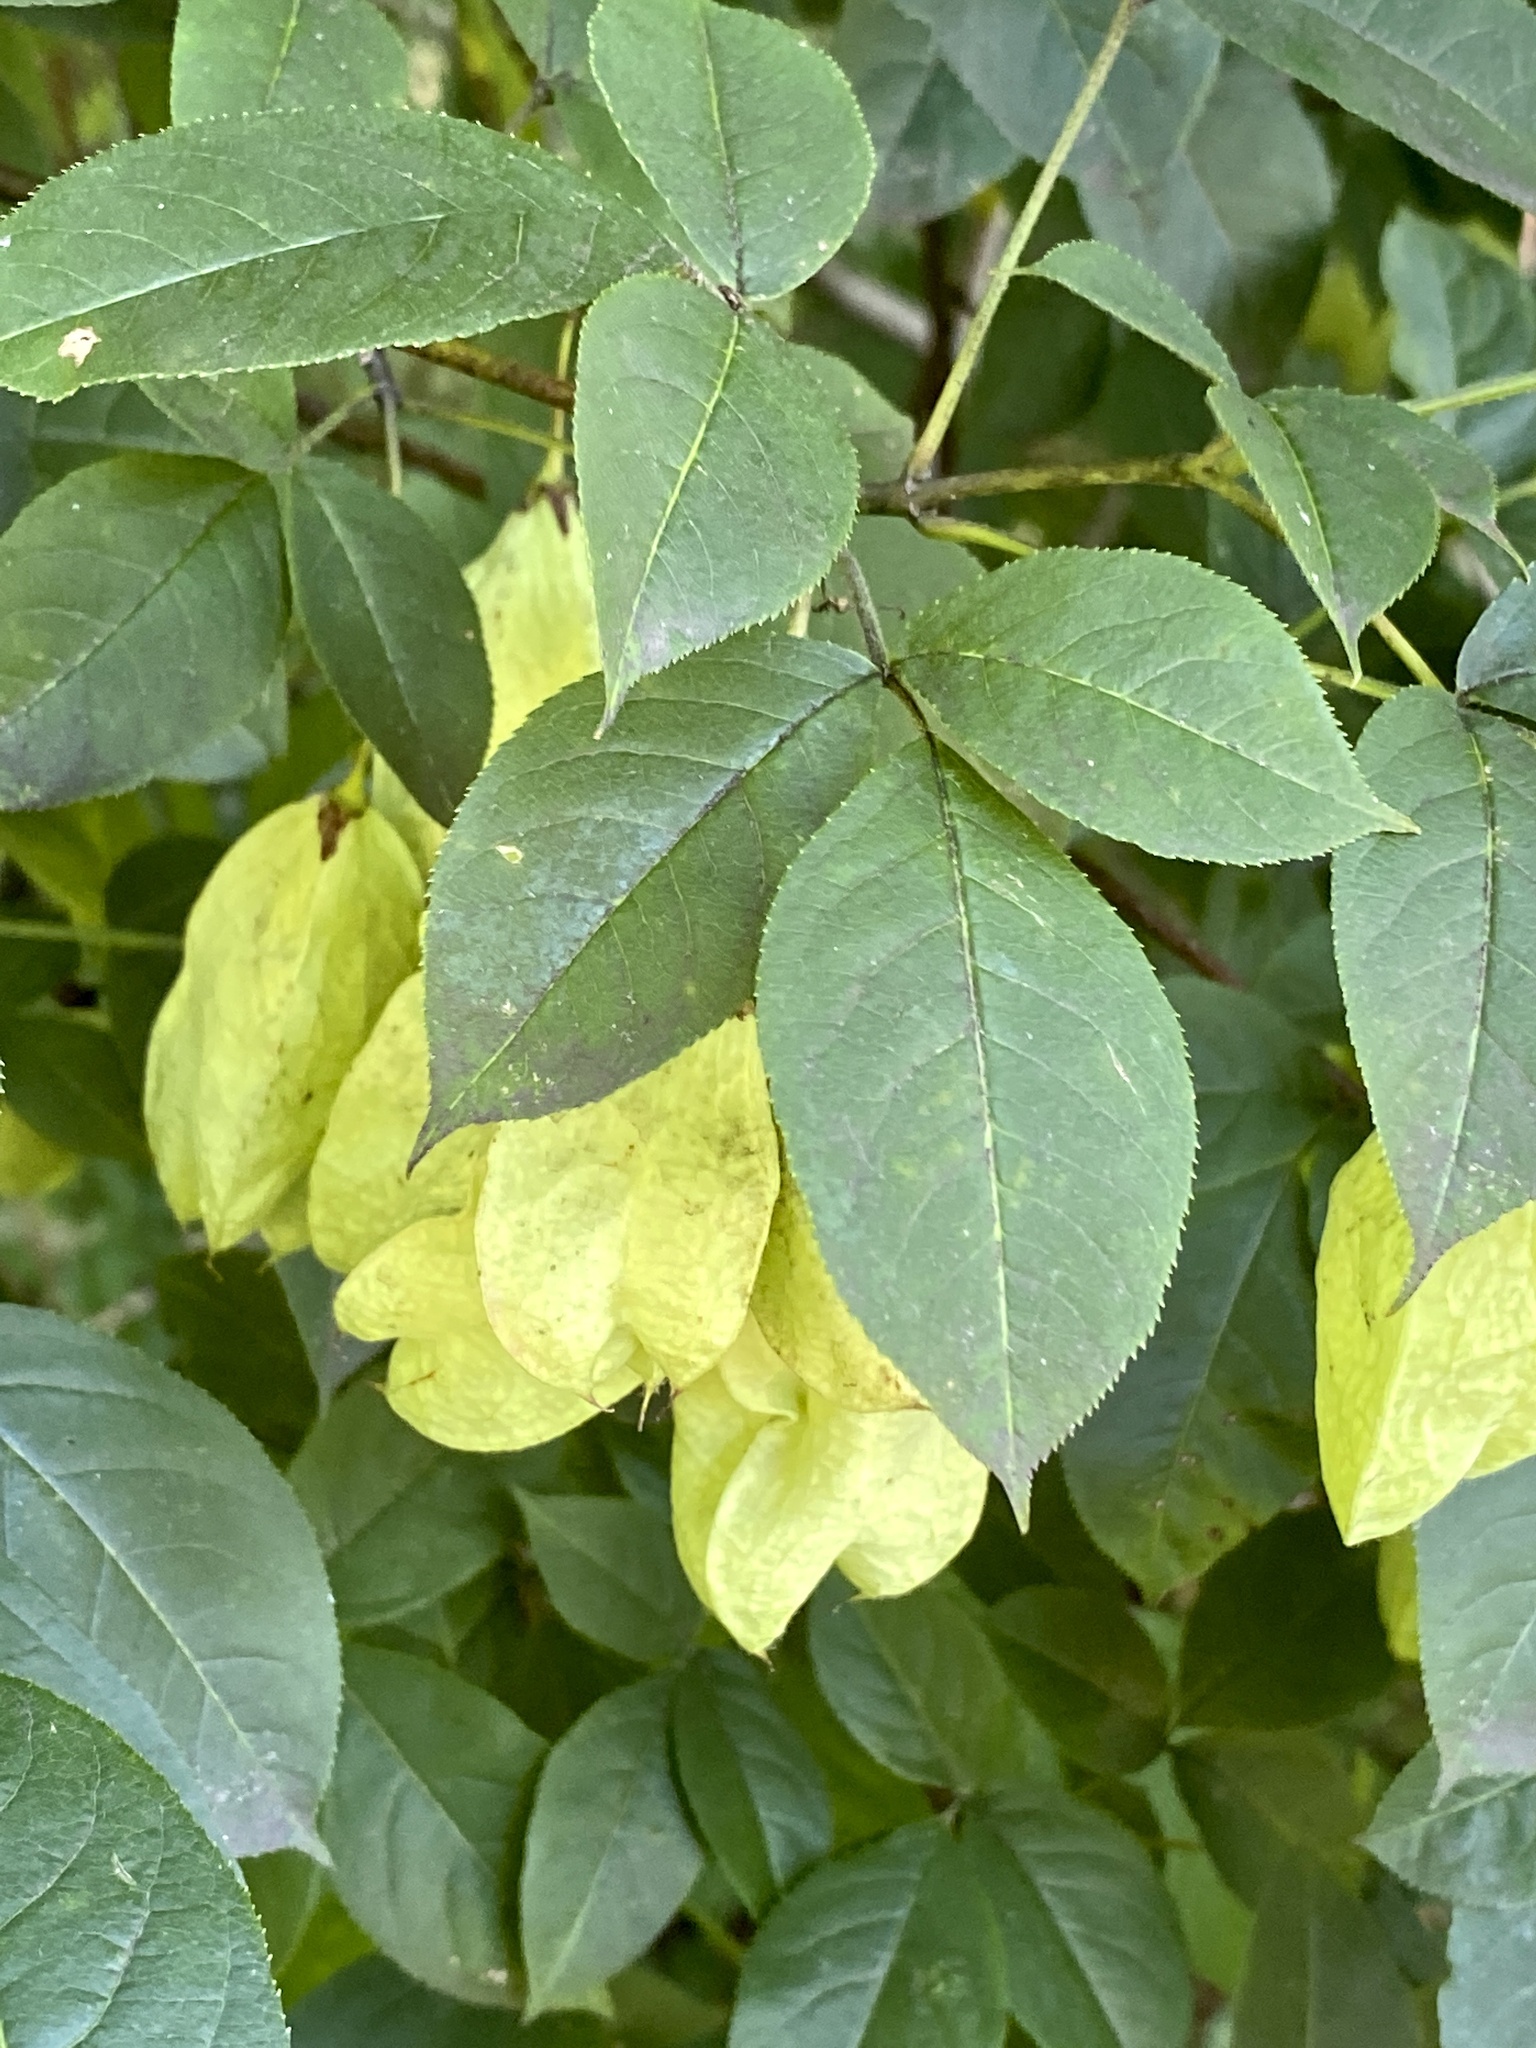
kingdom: Plantae
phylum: Tracheophyta
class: Magnoliopsida
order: Crossosomatales
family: Staphyleaceae
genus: Staphylea
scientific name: Staphylea trifolia
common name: American bladdernut
